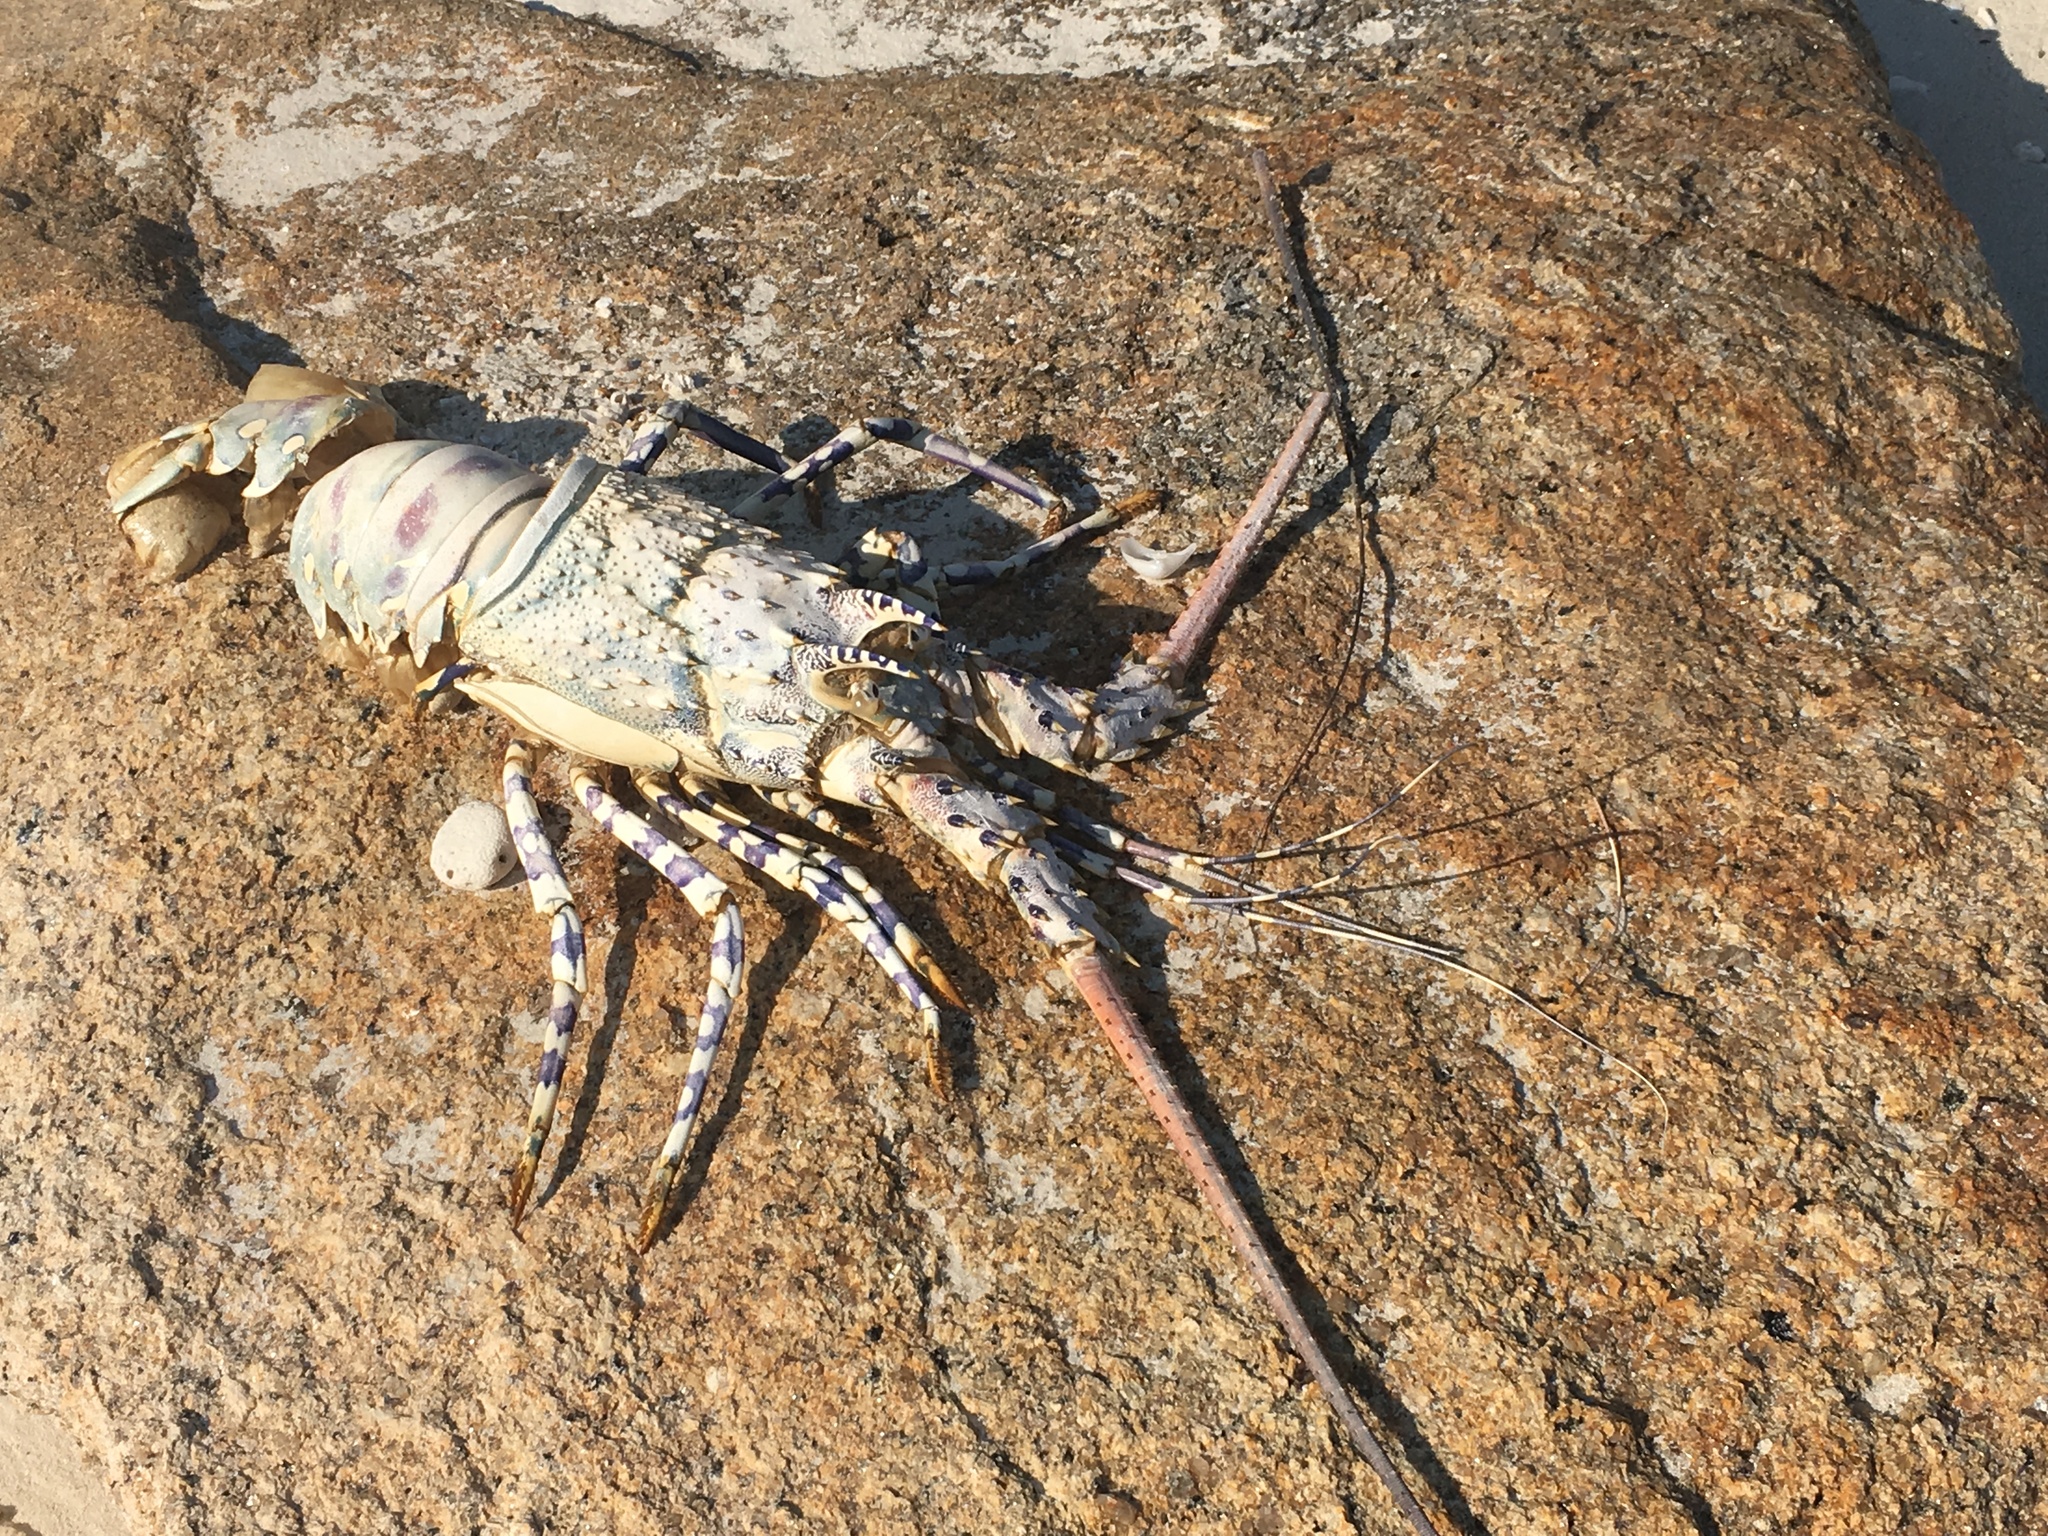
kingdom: Animalia
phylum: Arthropoda
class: Malacostraca
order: Decapoda
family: Palinuridae
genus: Panulirus
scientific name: Panulirus ornatus
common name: Ornate spiny lobster
